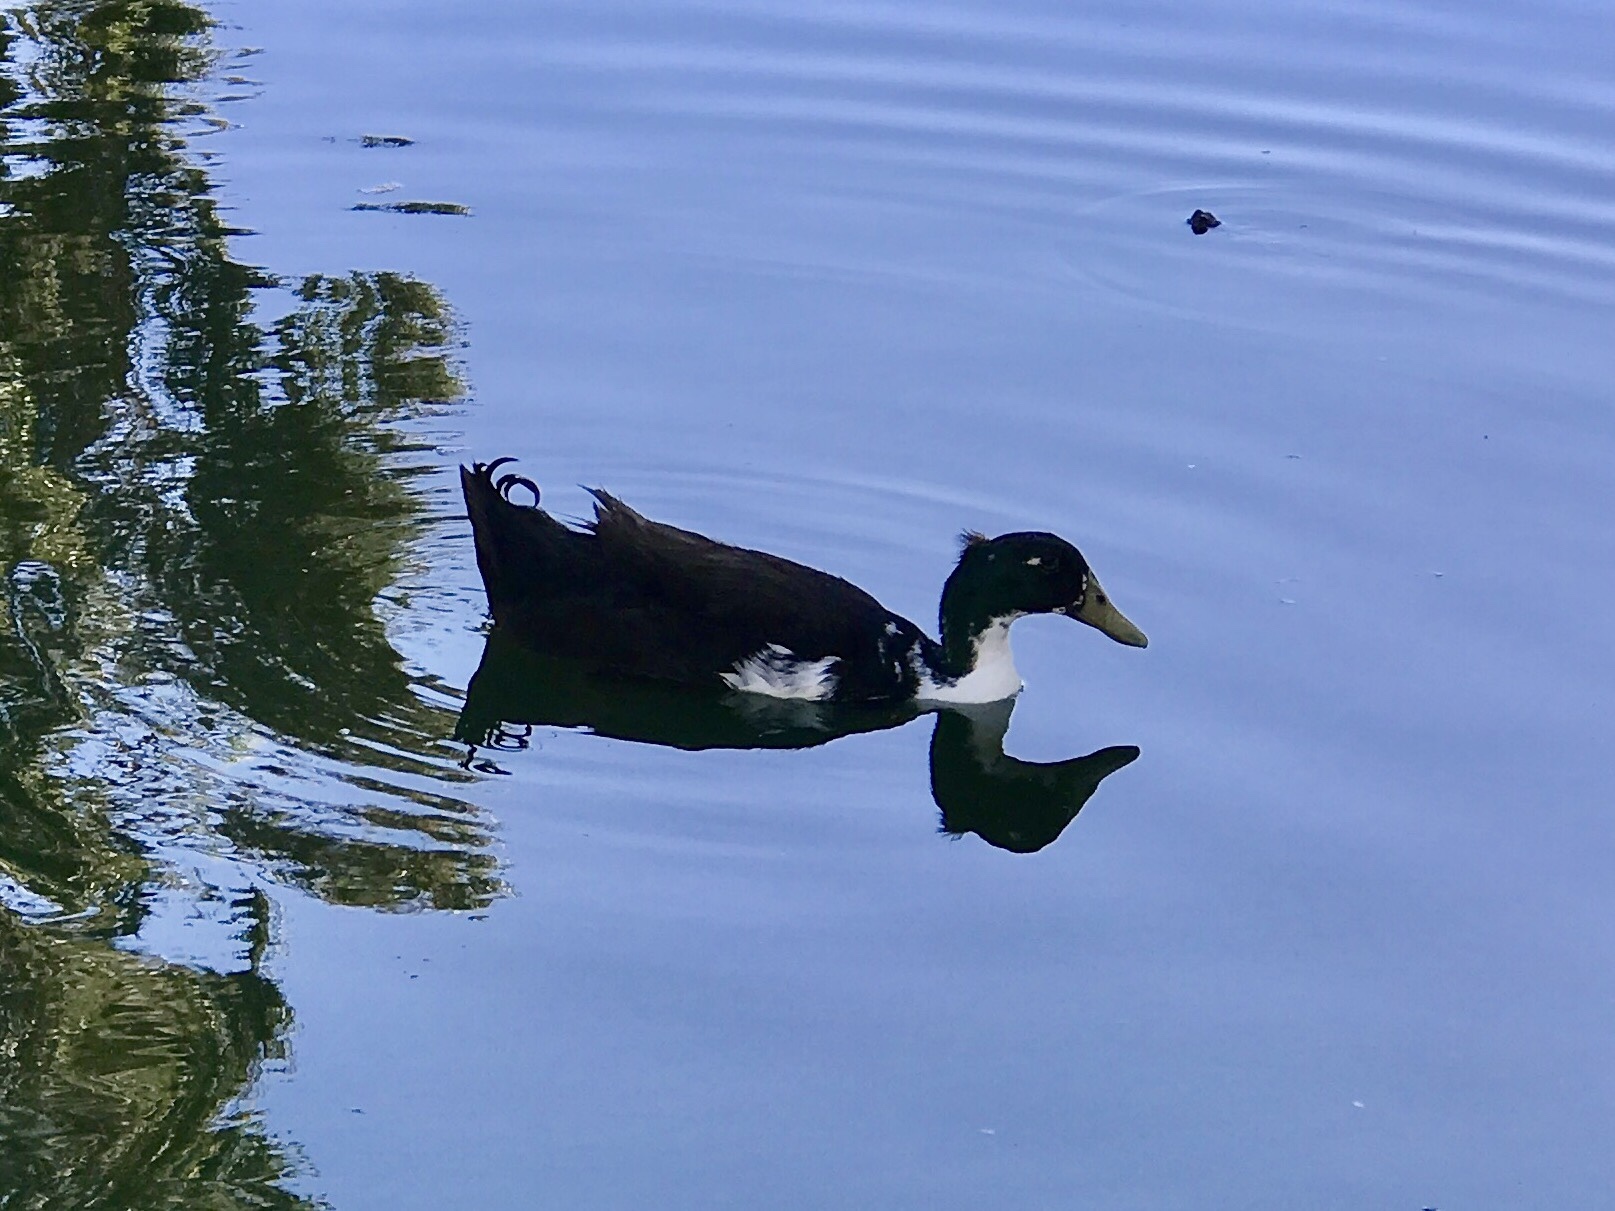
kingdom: Animalia
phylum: Chordata
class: Aves
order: Anseriformes
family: Anatidae
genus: Anas
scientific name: Anas platyrhynchos
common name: Mallard
